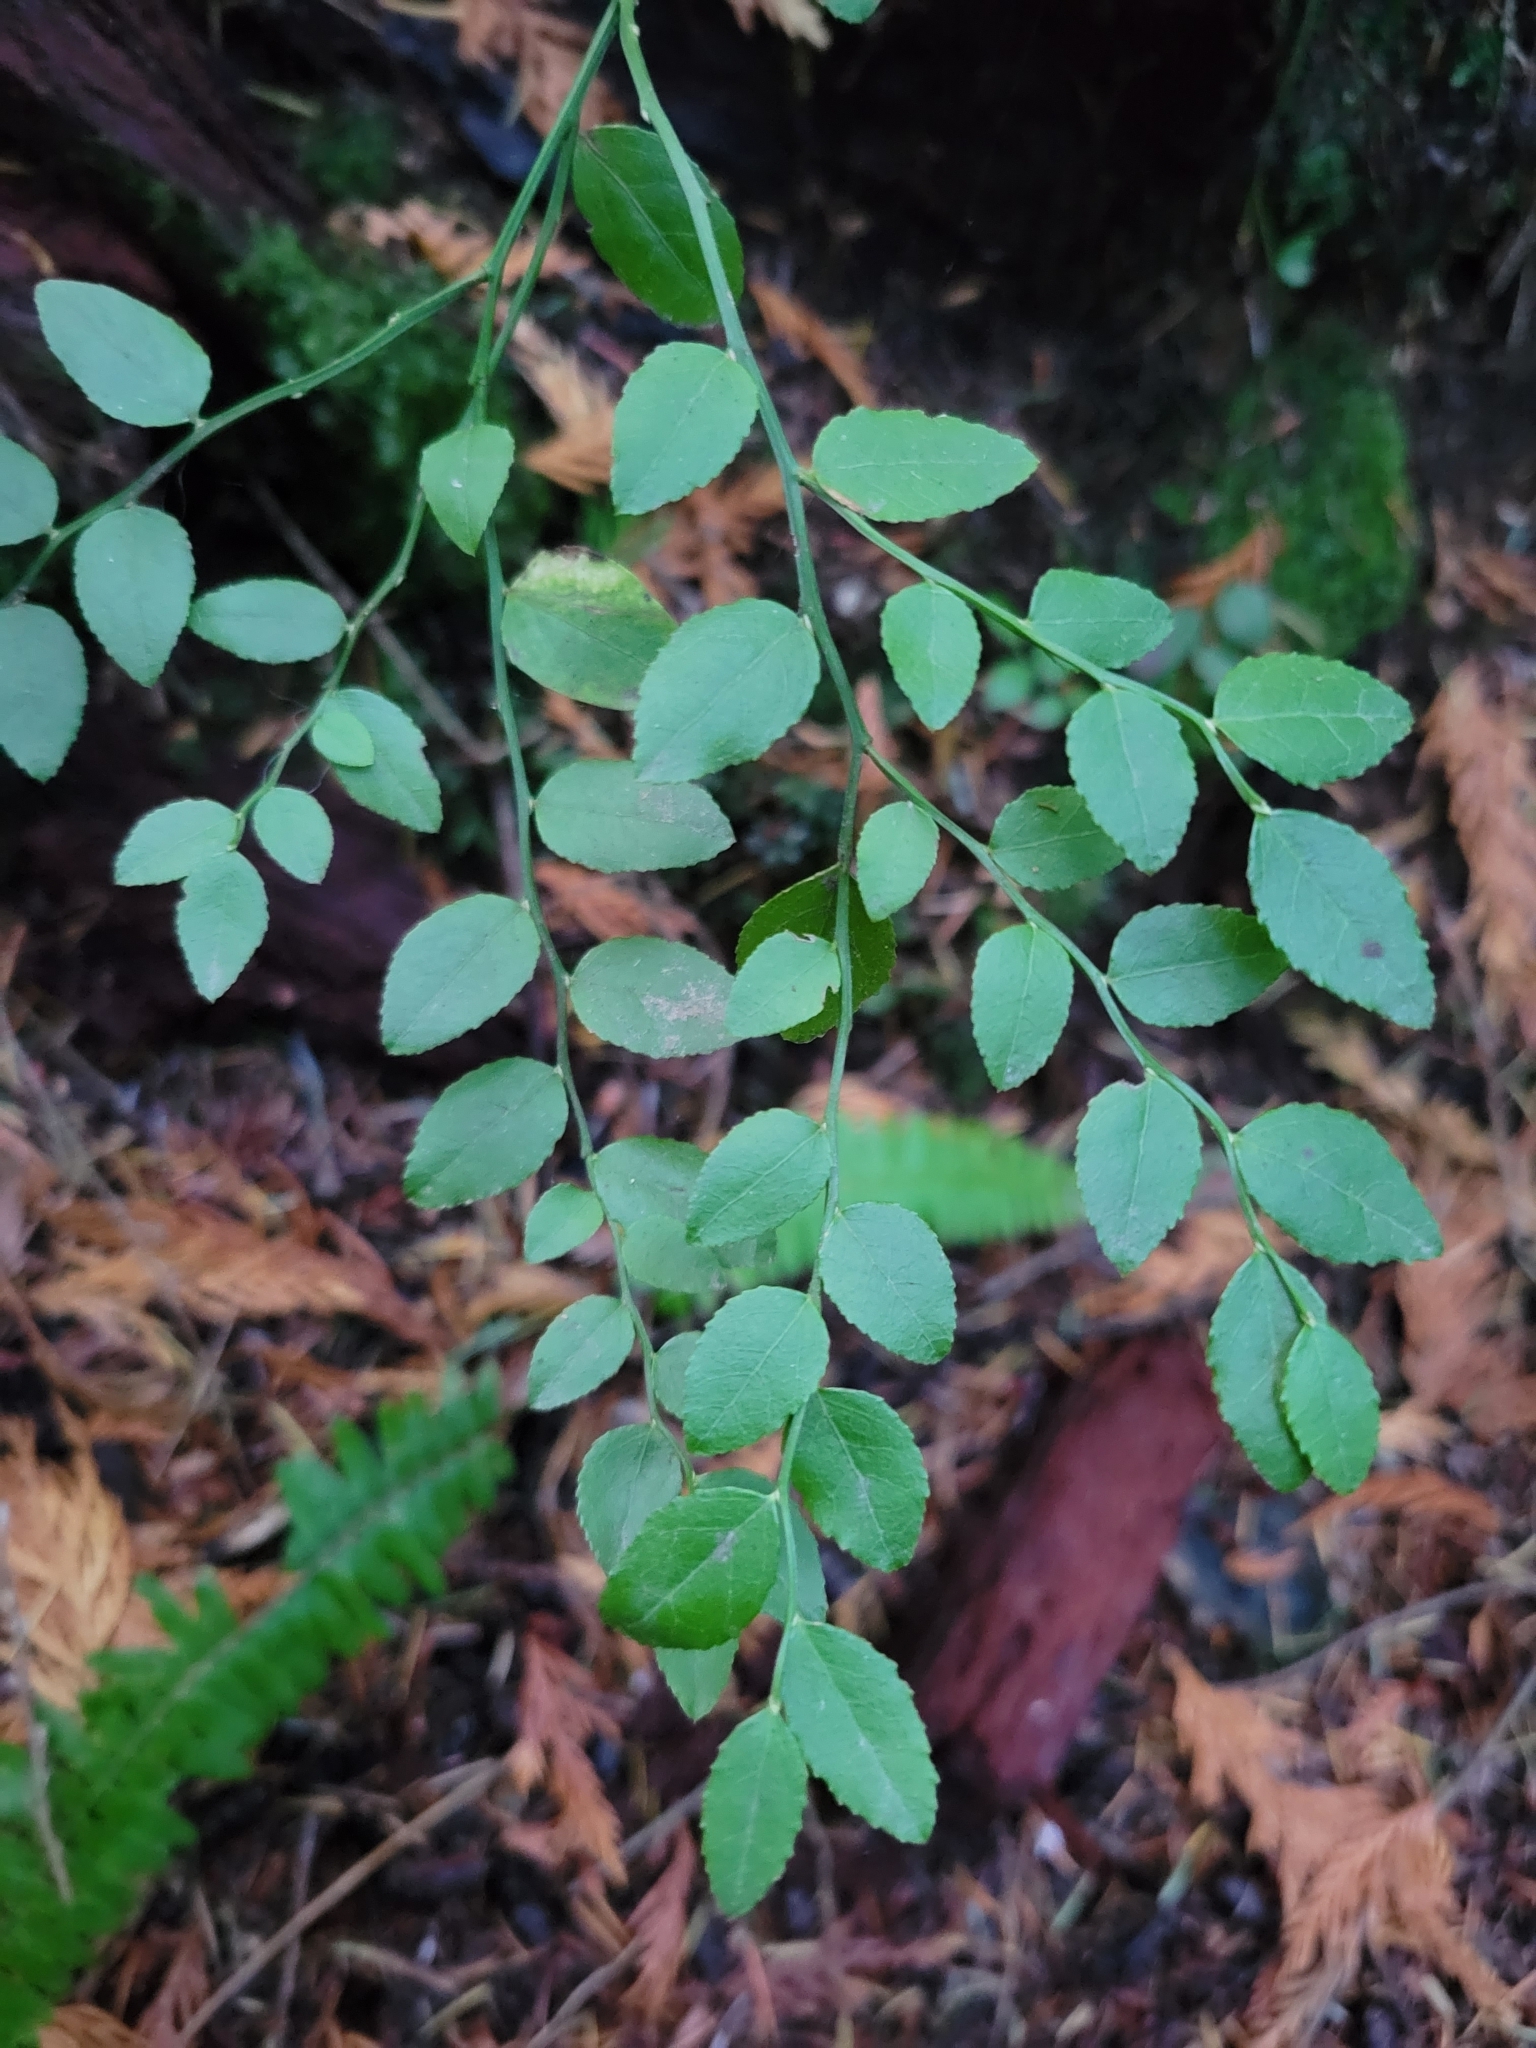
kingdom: Plantae
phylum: Tracheophyta
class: Magnoliopsida
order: Ericales
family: Ericaceae
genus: Vaccinium
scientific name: Vaccinium parvifolium
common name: Red-huckleberry
